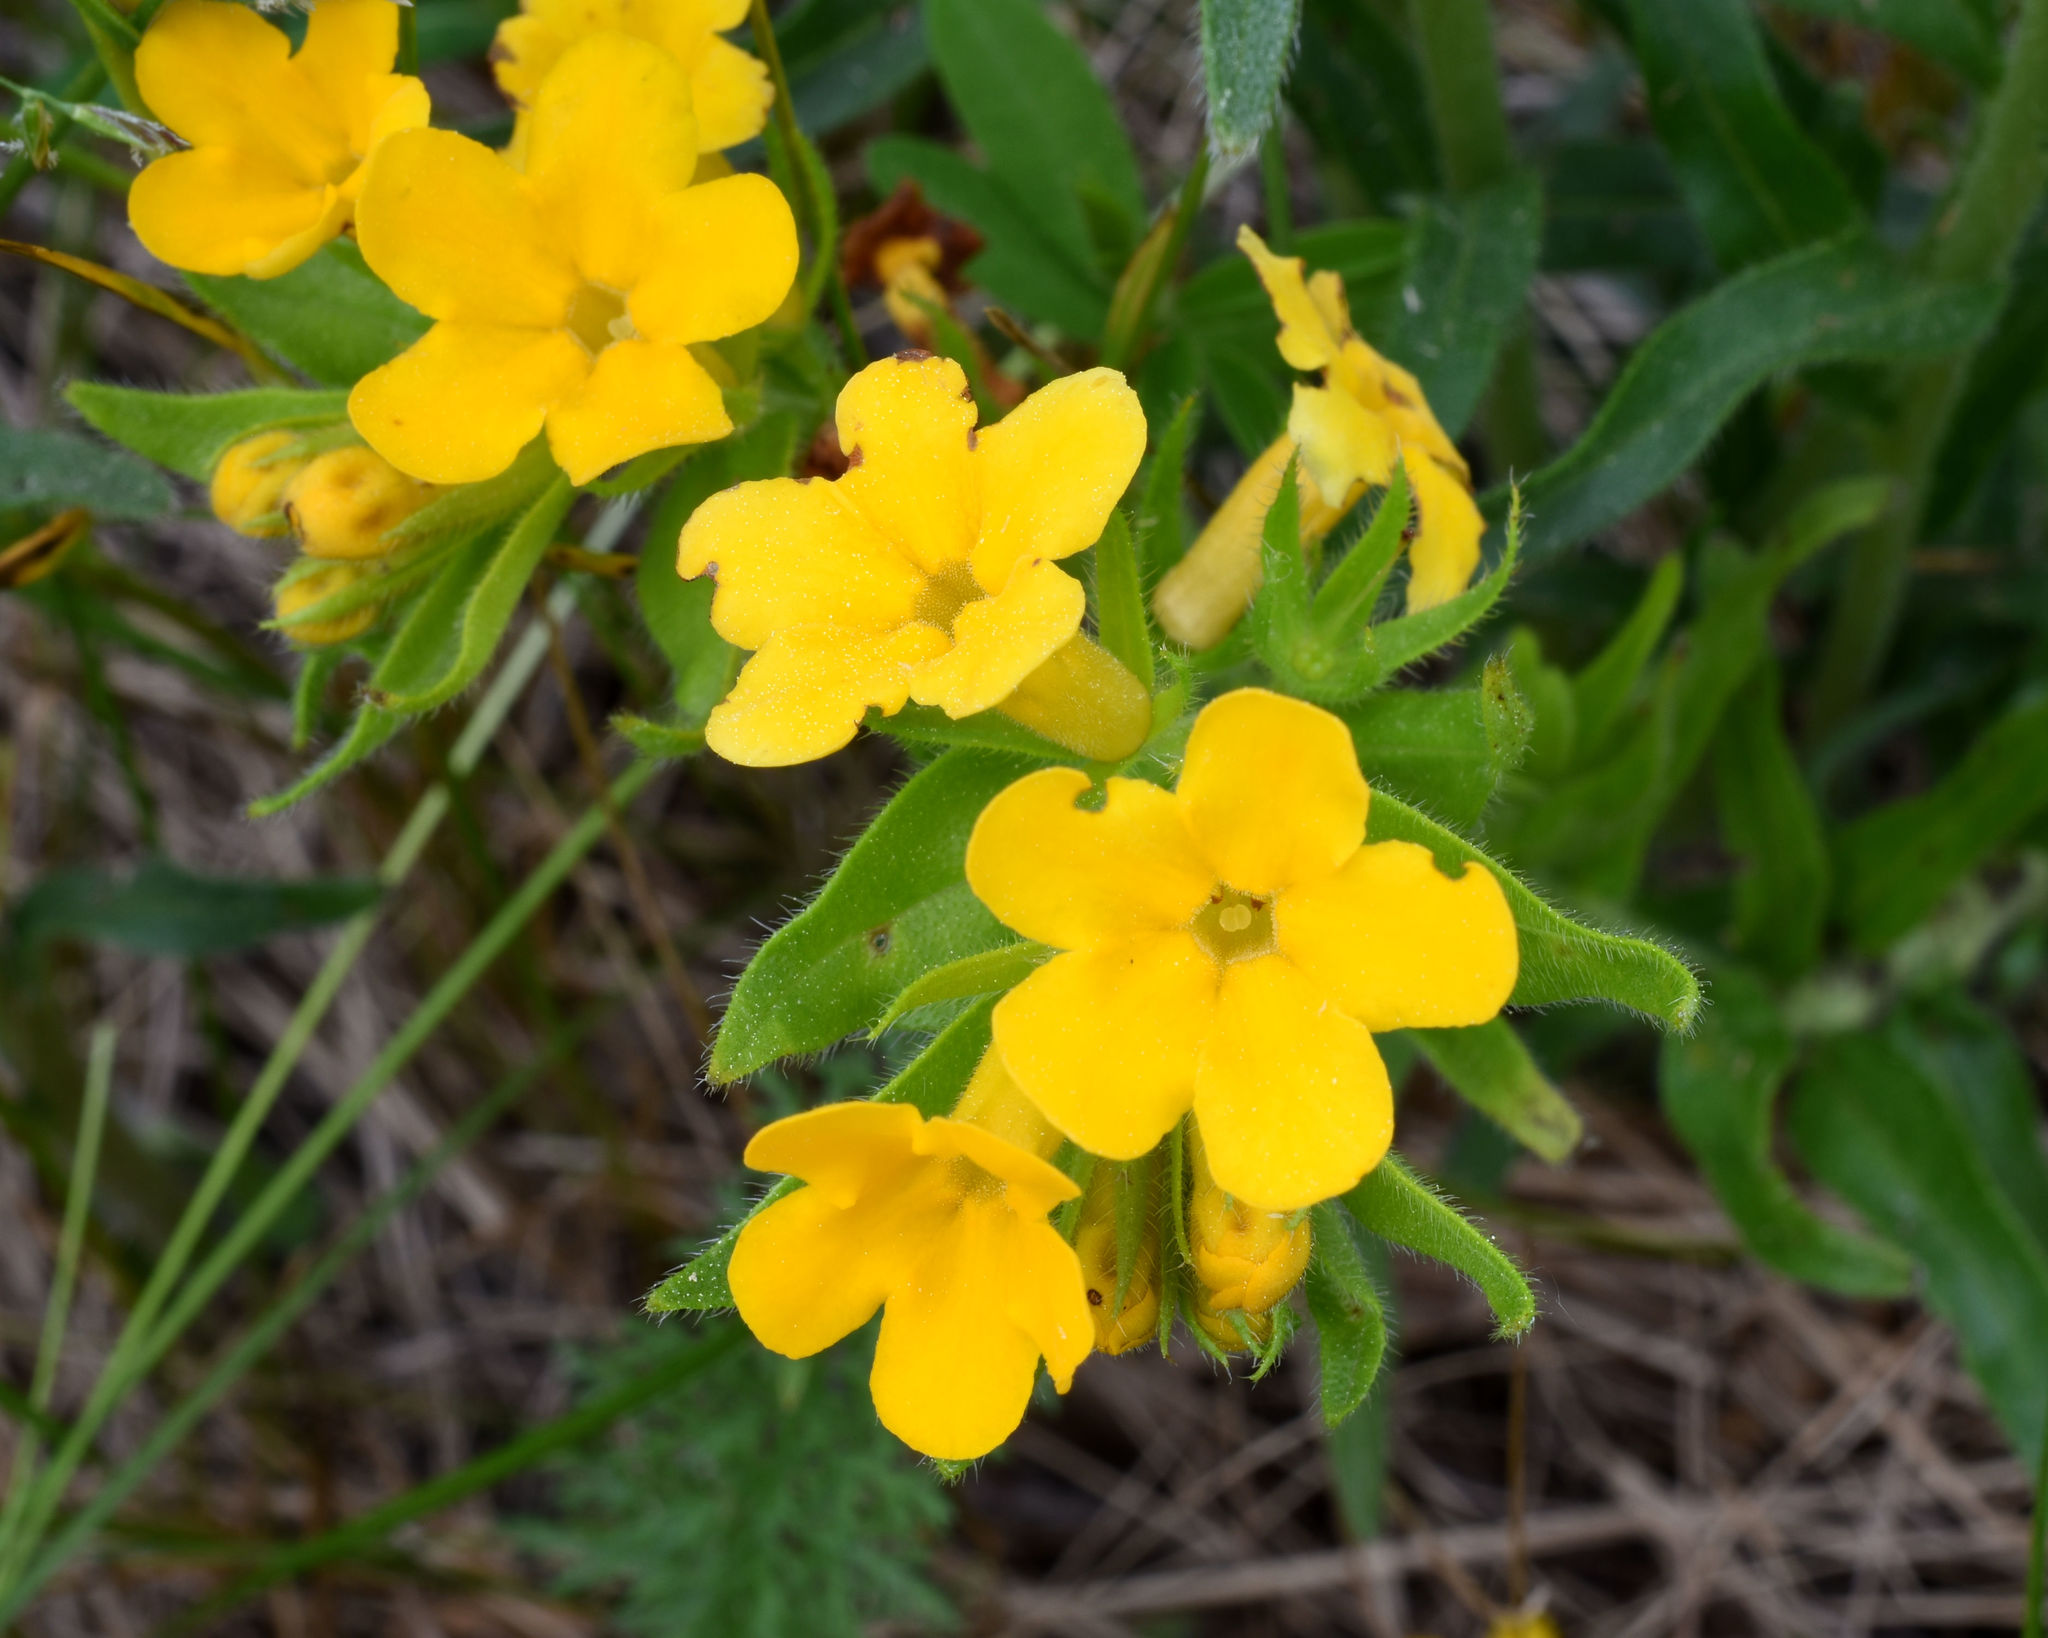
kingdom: Plantae
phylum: Tracheophyta
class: Magnoliopsida
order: Boraginales
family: Boraginaceae
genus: Lithospermum
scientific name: Lithospermum caroliniense
